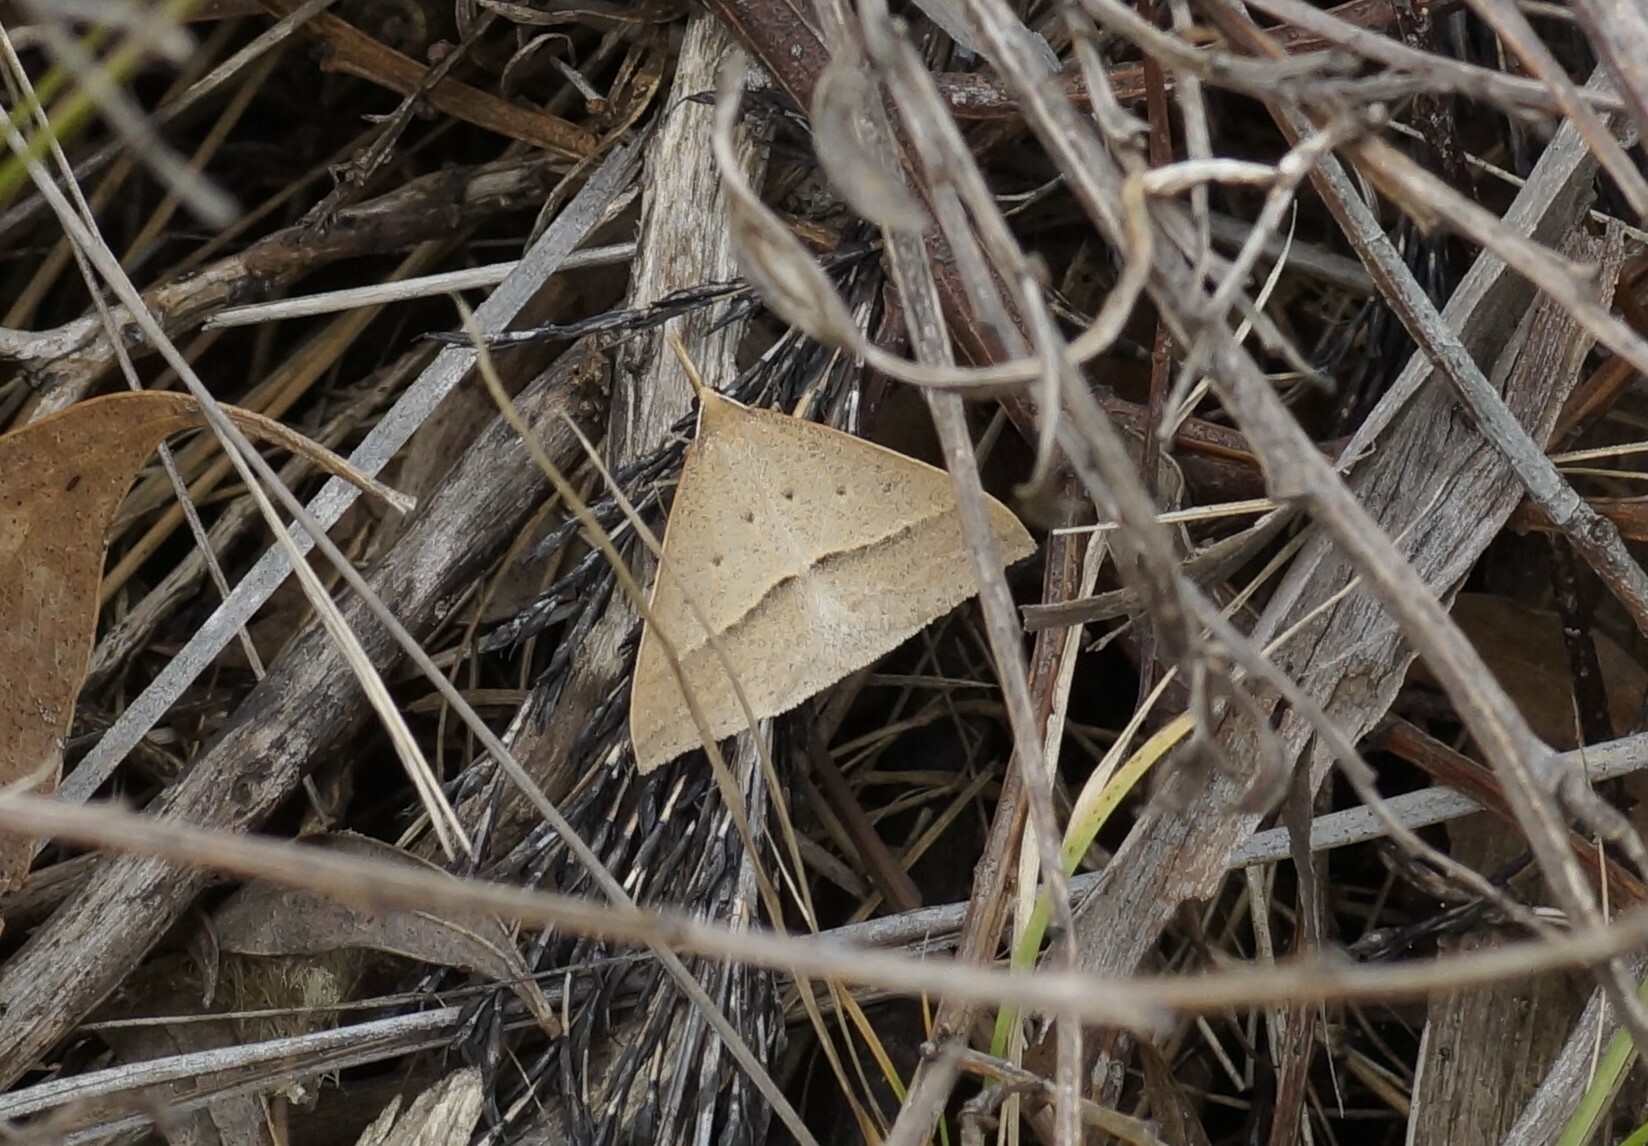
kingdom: Animalia
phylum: Arthropoda
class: Insecta
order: Lepidoptera
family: Geometridae
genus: Epidesmia
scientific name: Epidesmia hypenaria
